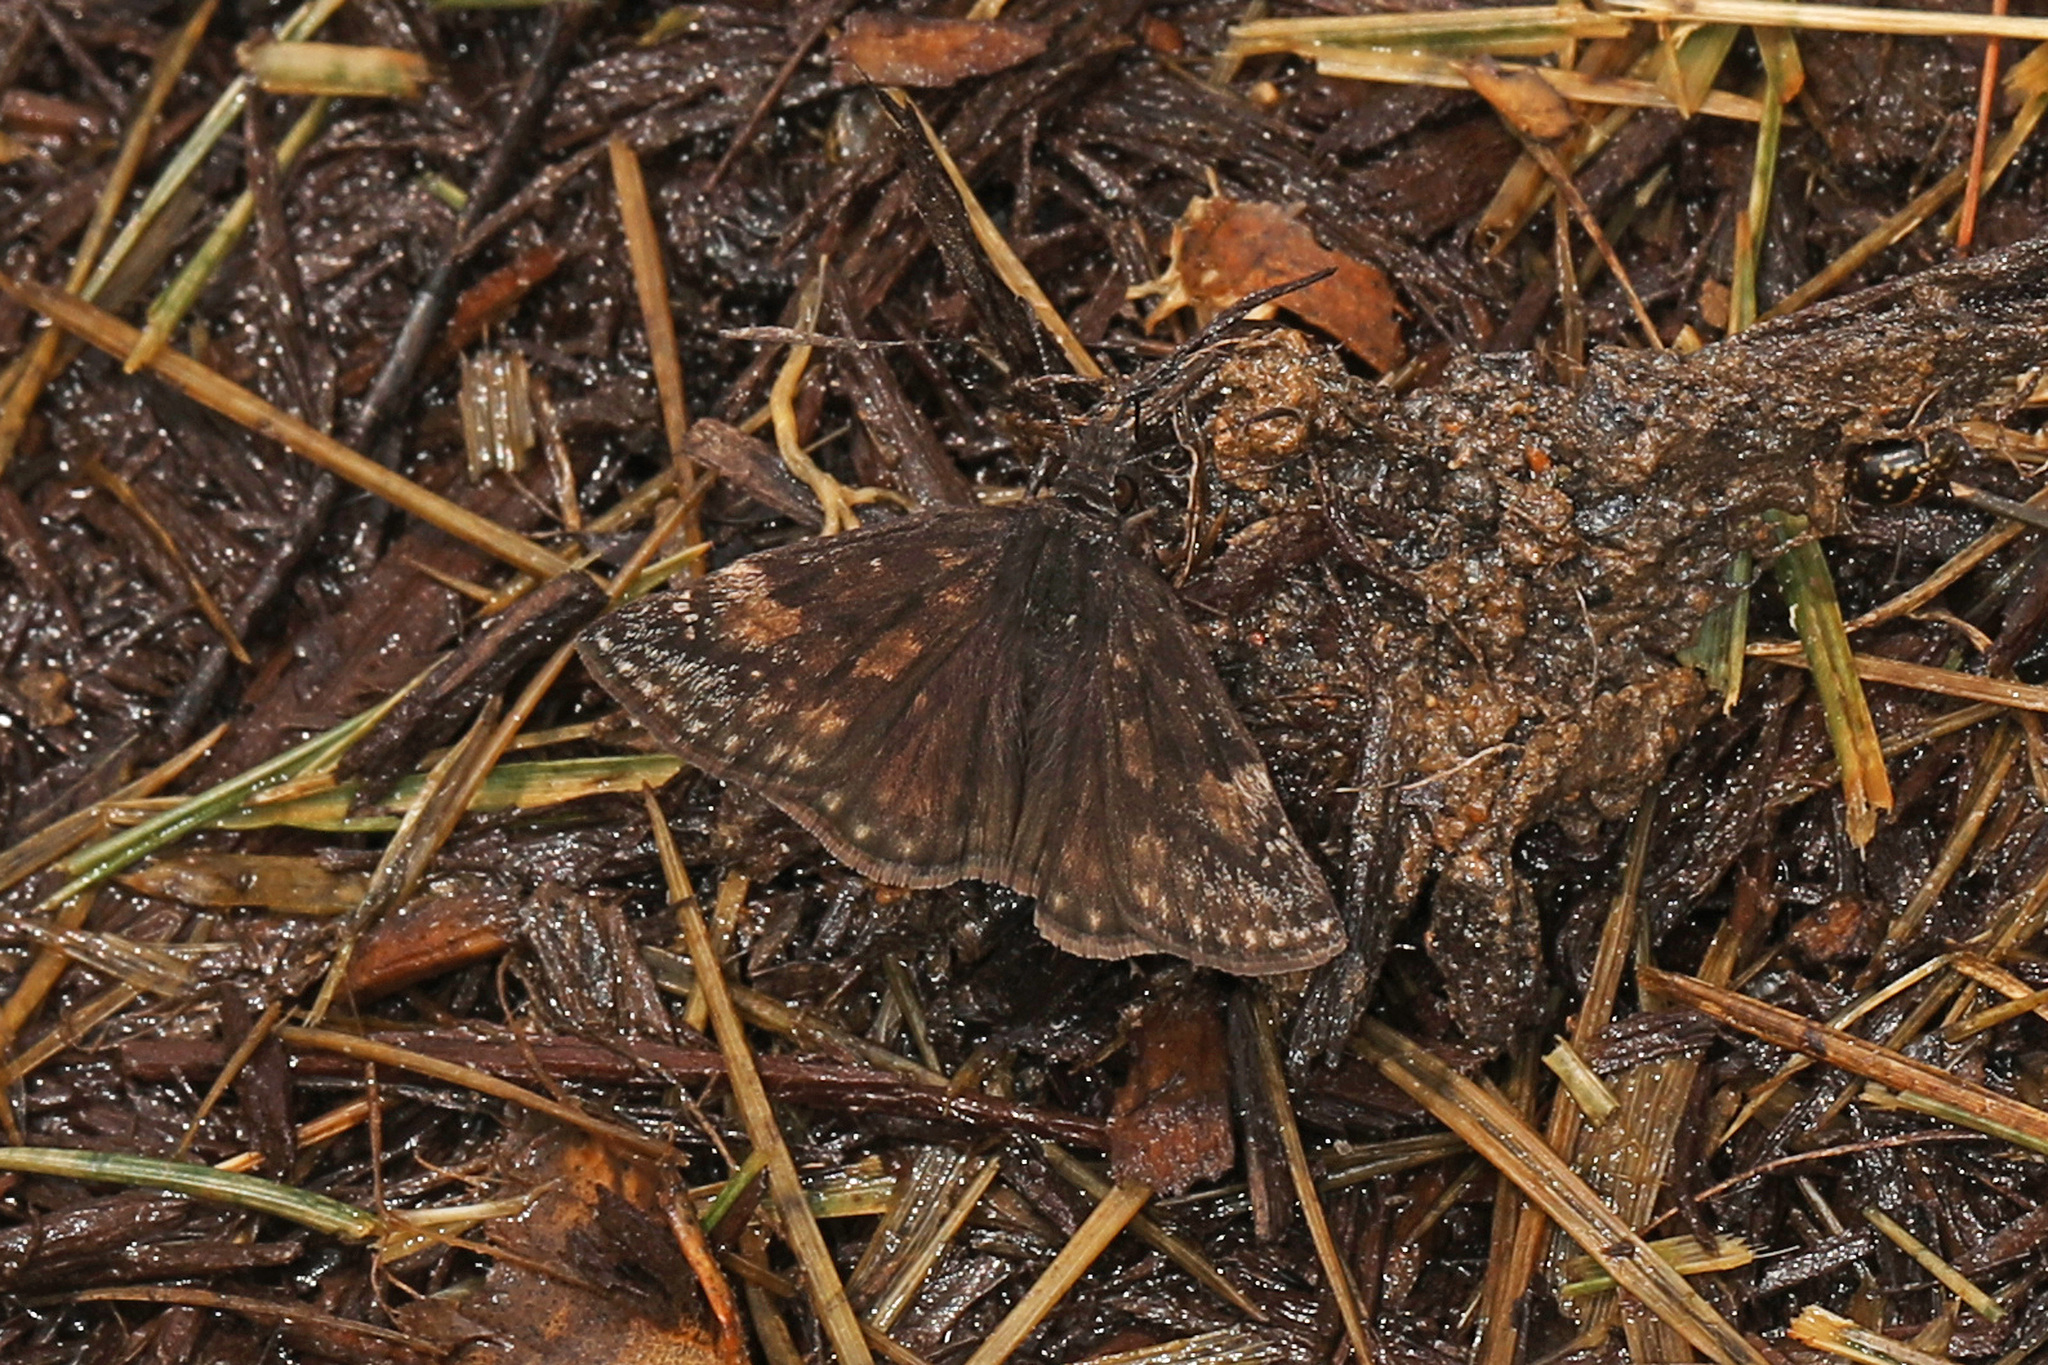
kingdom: Animalia
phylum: Arthropoda
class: Insecta
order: Lepidoptera
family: Hesperiidae
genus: Erynnis
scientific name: Erynnis baptisiae
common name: Wild indigo duskywing
